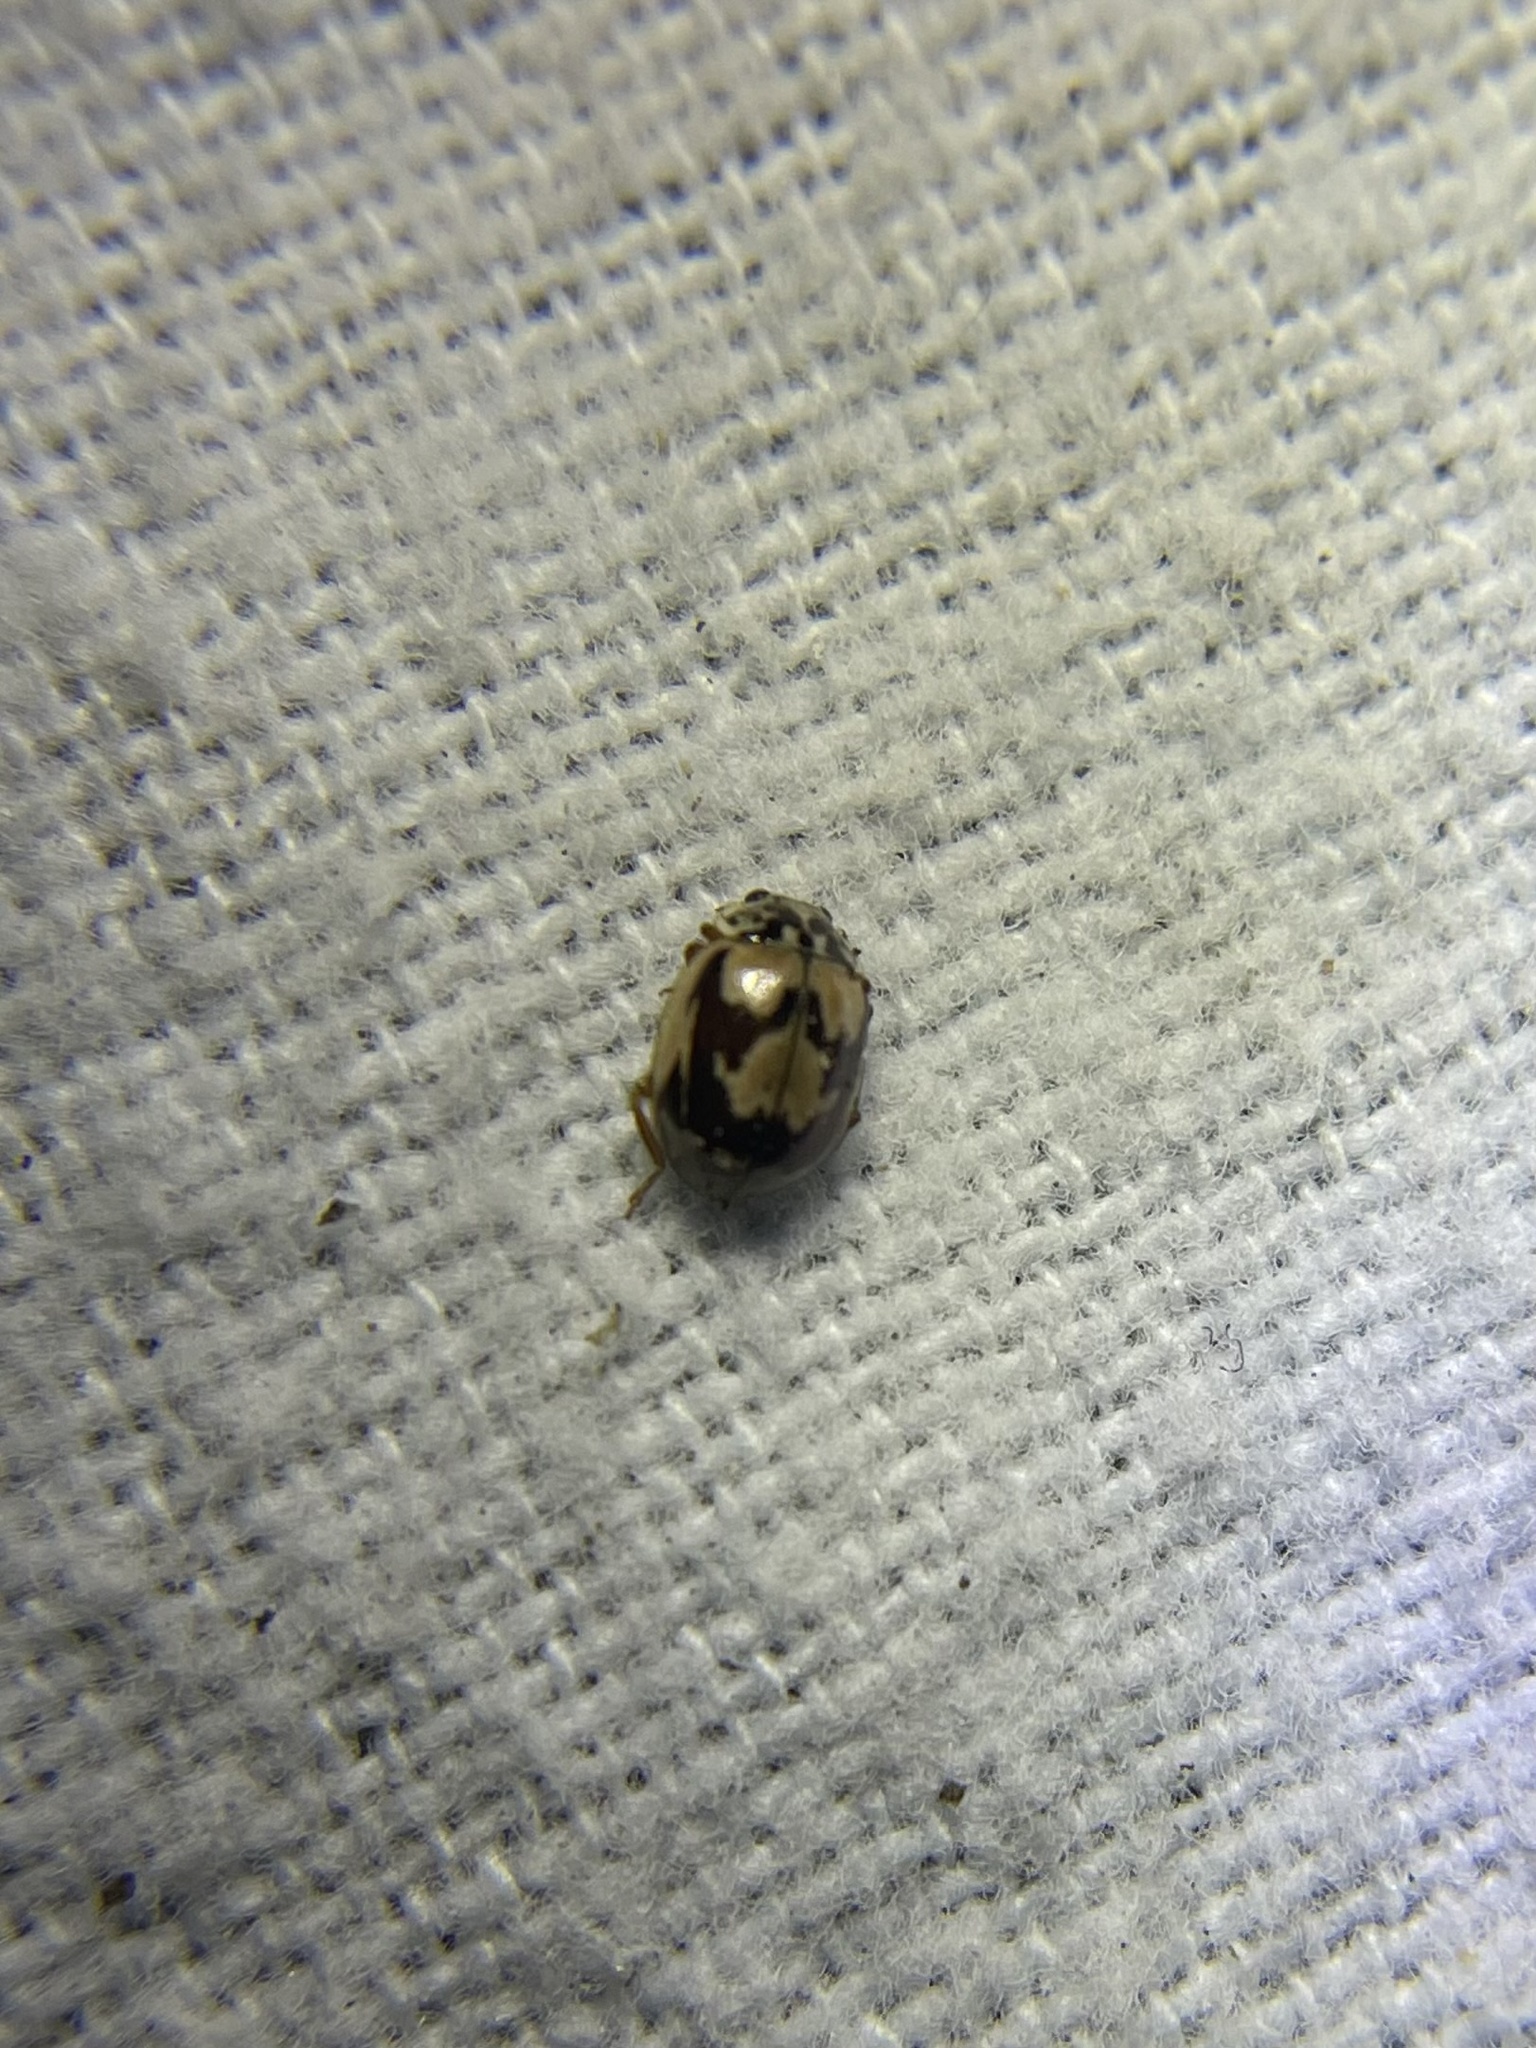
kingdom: Animalia
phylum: Arthropoda
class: Insecta
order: Coleoptera
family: Coccinellidae
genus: Mulsantina
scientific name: Mulsantina picta
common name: Painted ladybird
